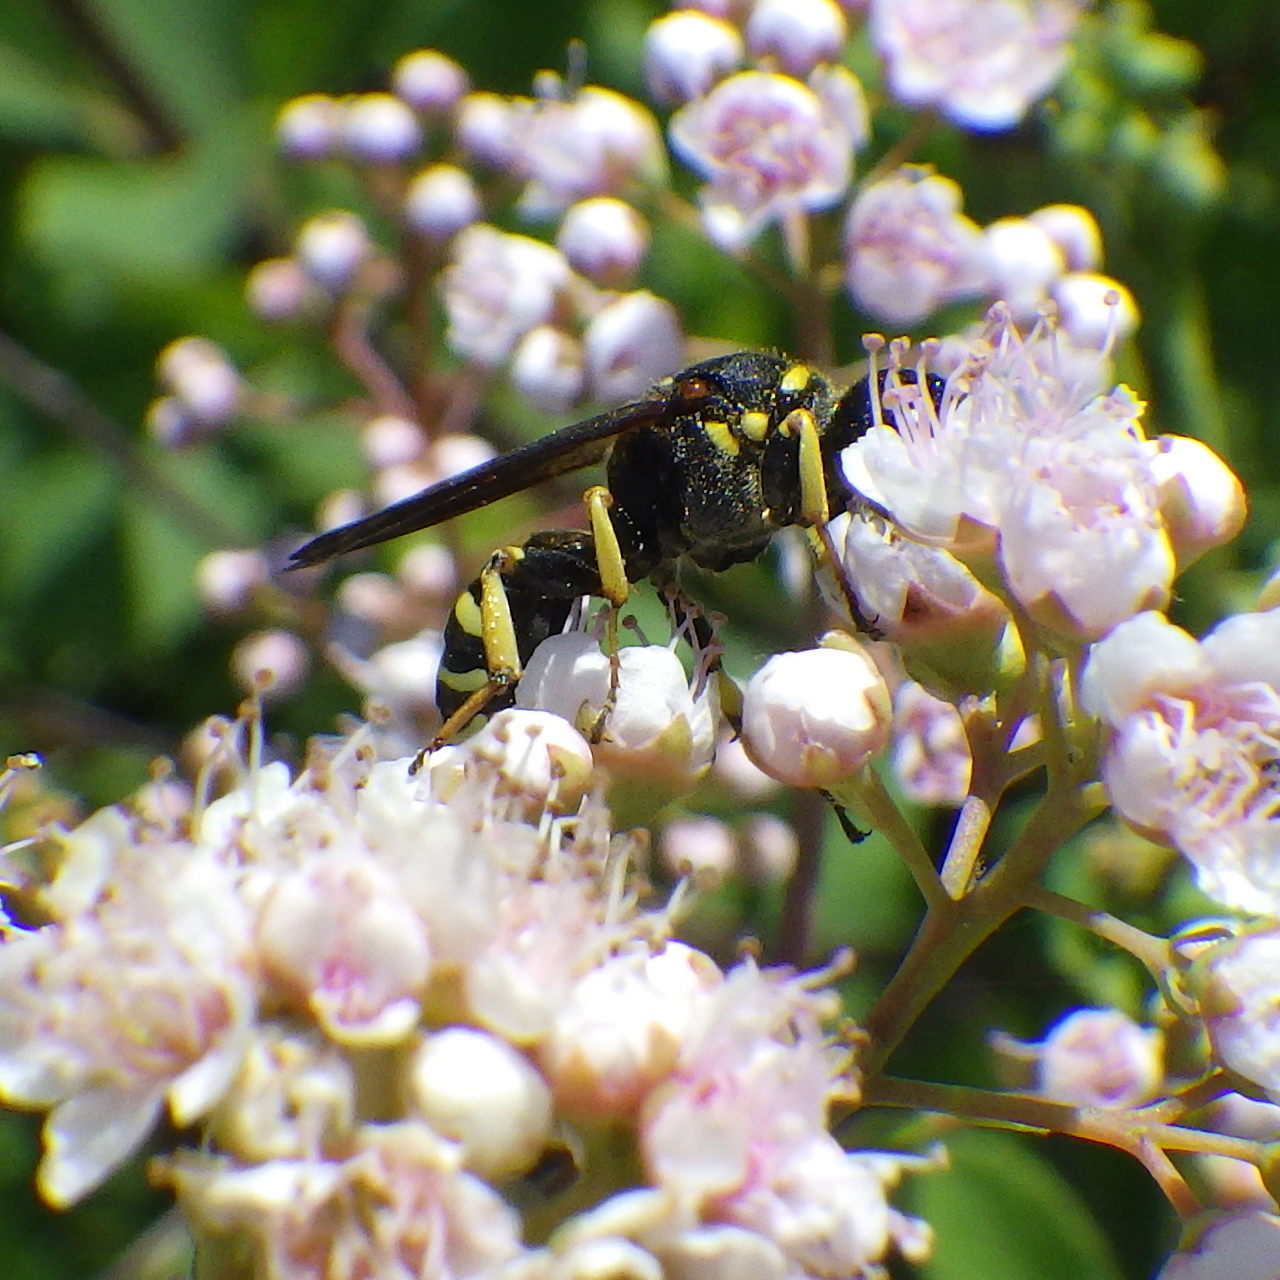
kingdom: Animalia
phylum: Arthropoda
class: Insecta
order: Hymenoptera
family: Crabronidae
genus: Ectemnius
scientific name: Ectemnius arcuatus
